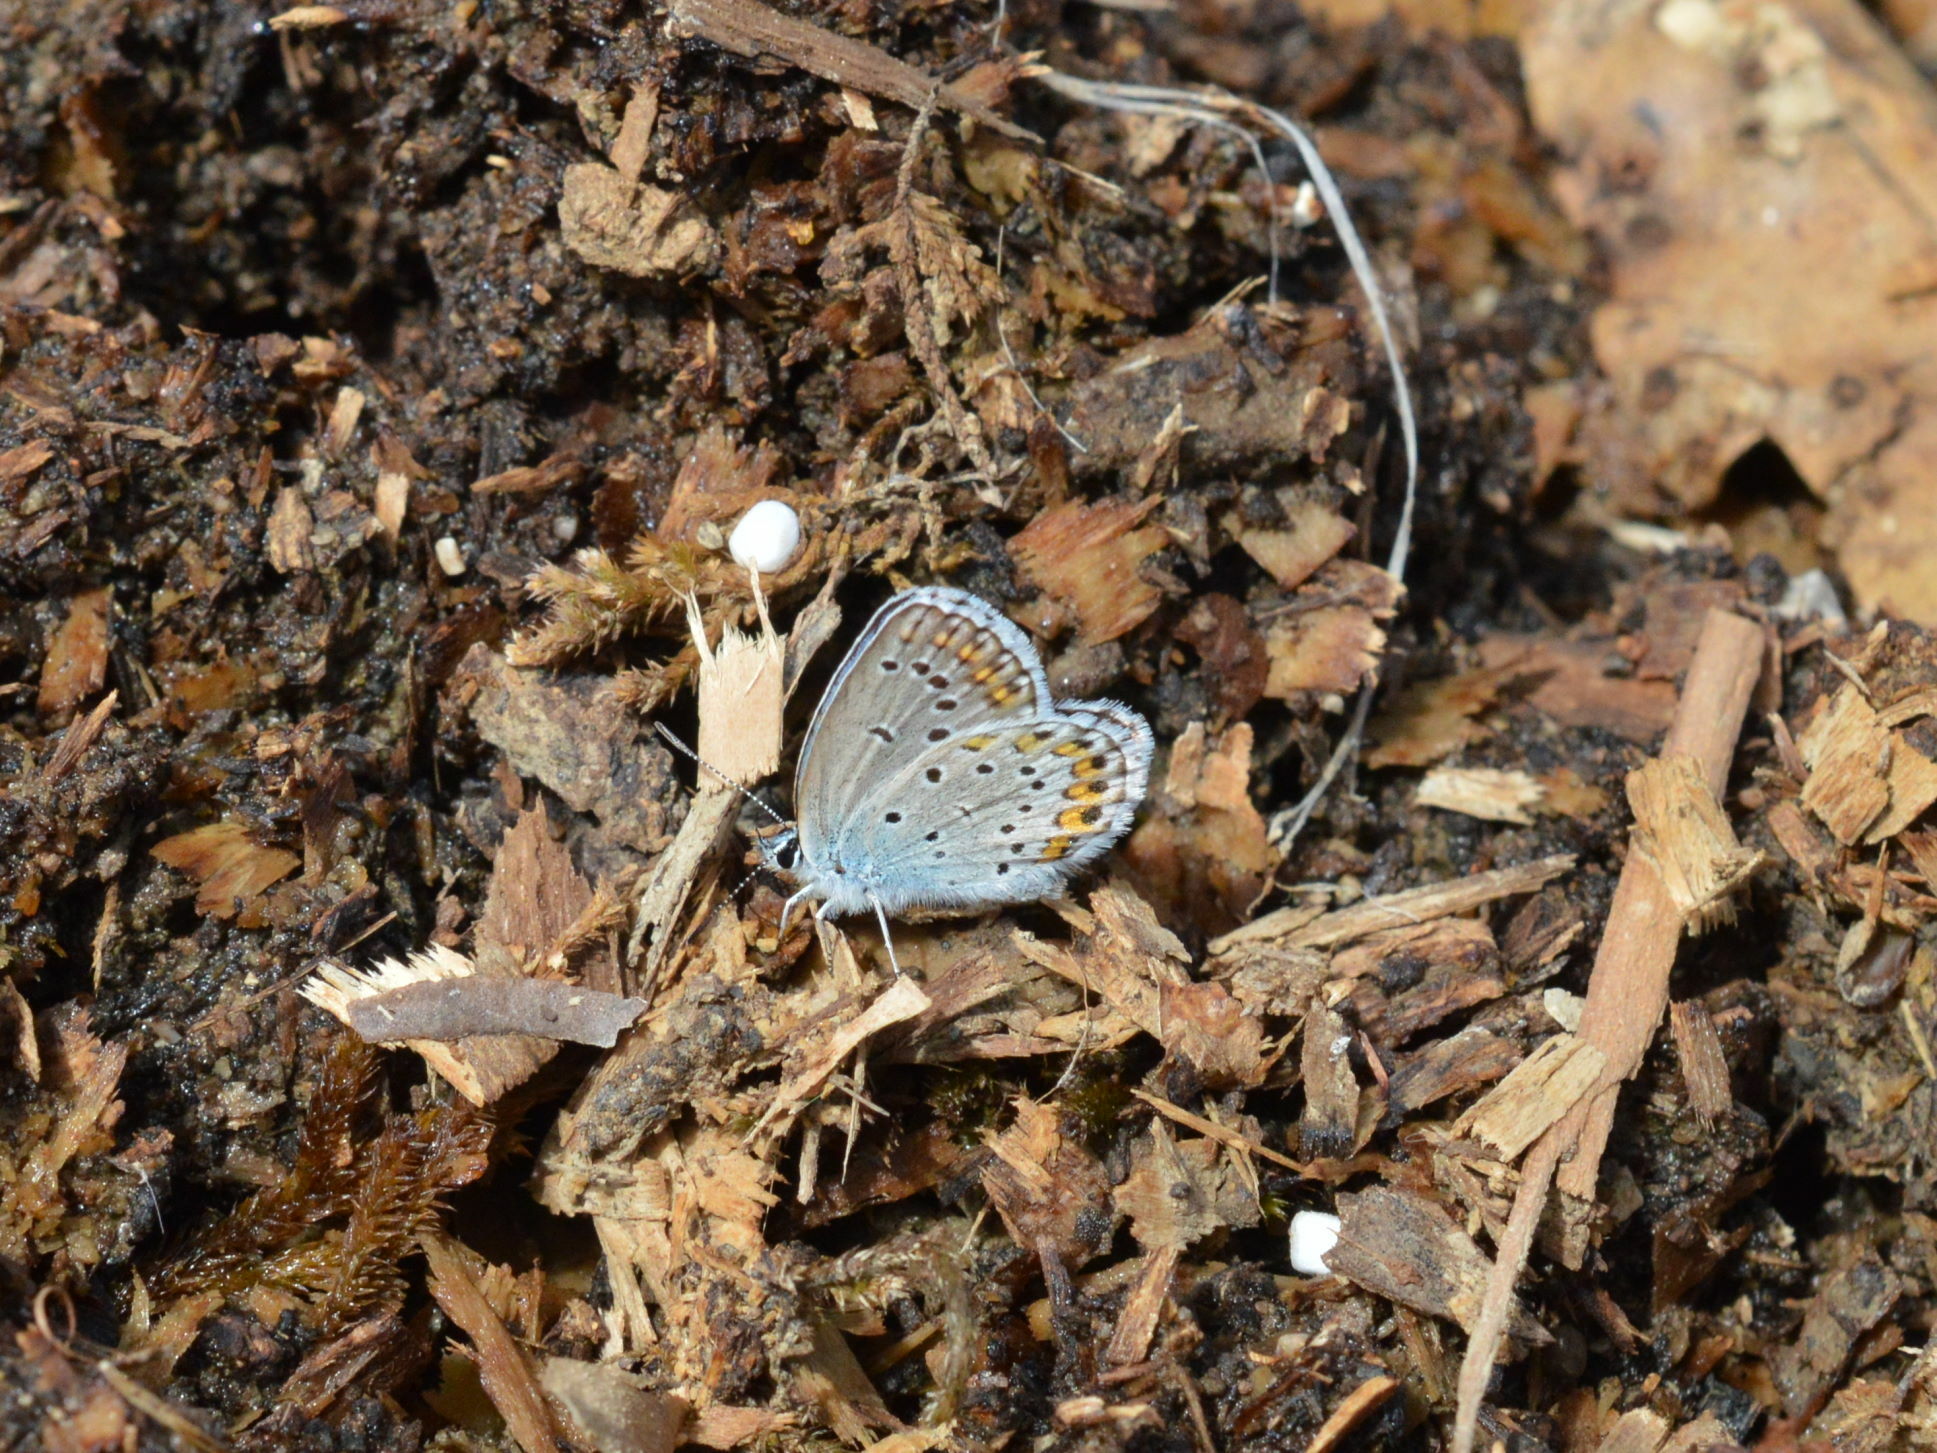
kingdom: Animalia
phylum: Arthropoda
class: Insecta
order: Lepidoptera
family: Lycaenidae
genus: Plebejus
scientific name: Plebejus argyrognomon
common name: Reverdin's blue
